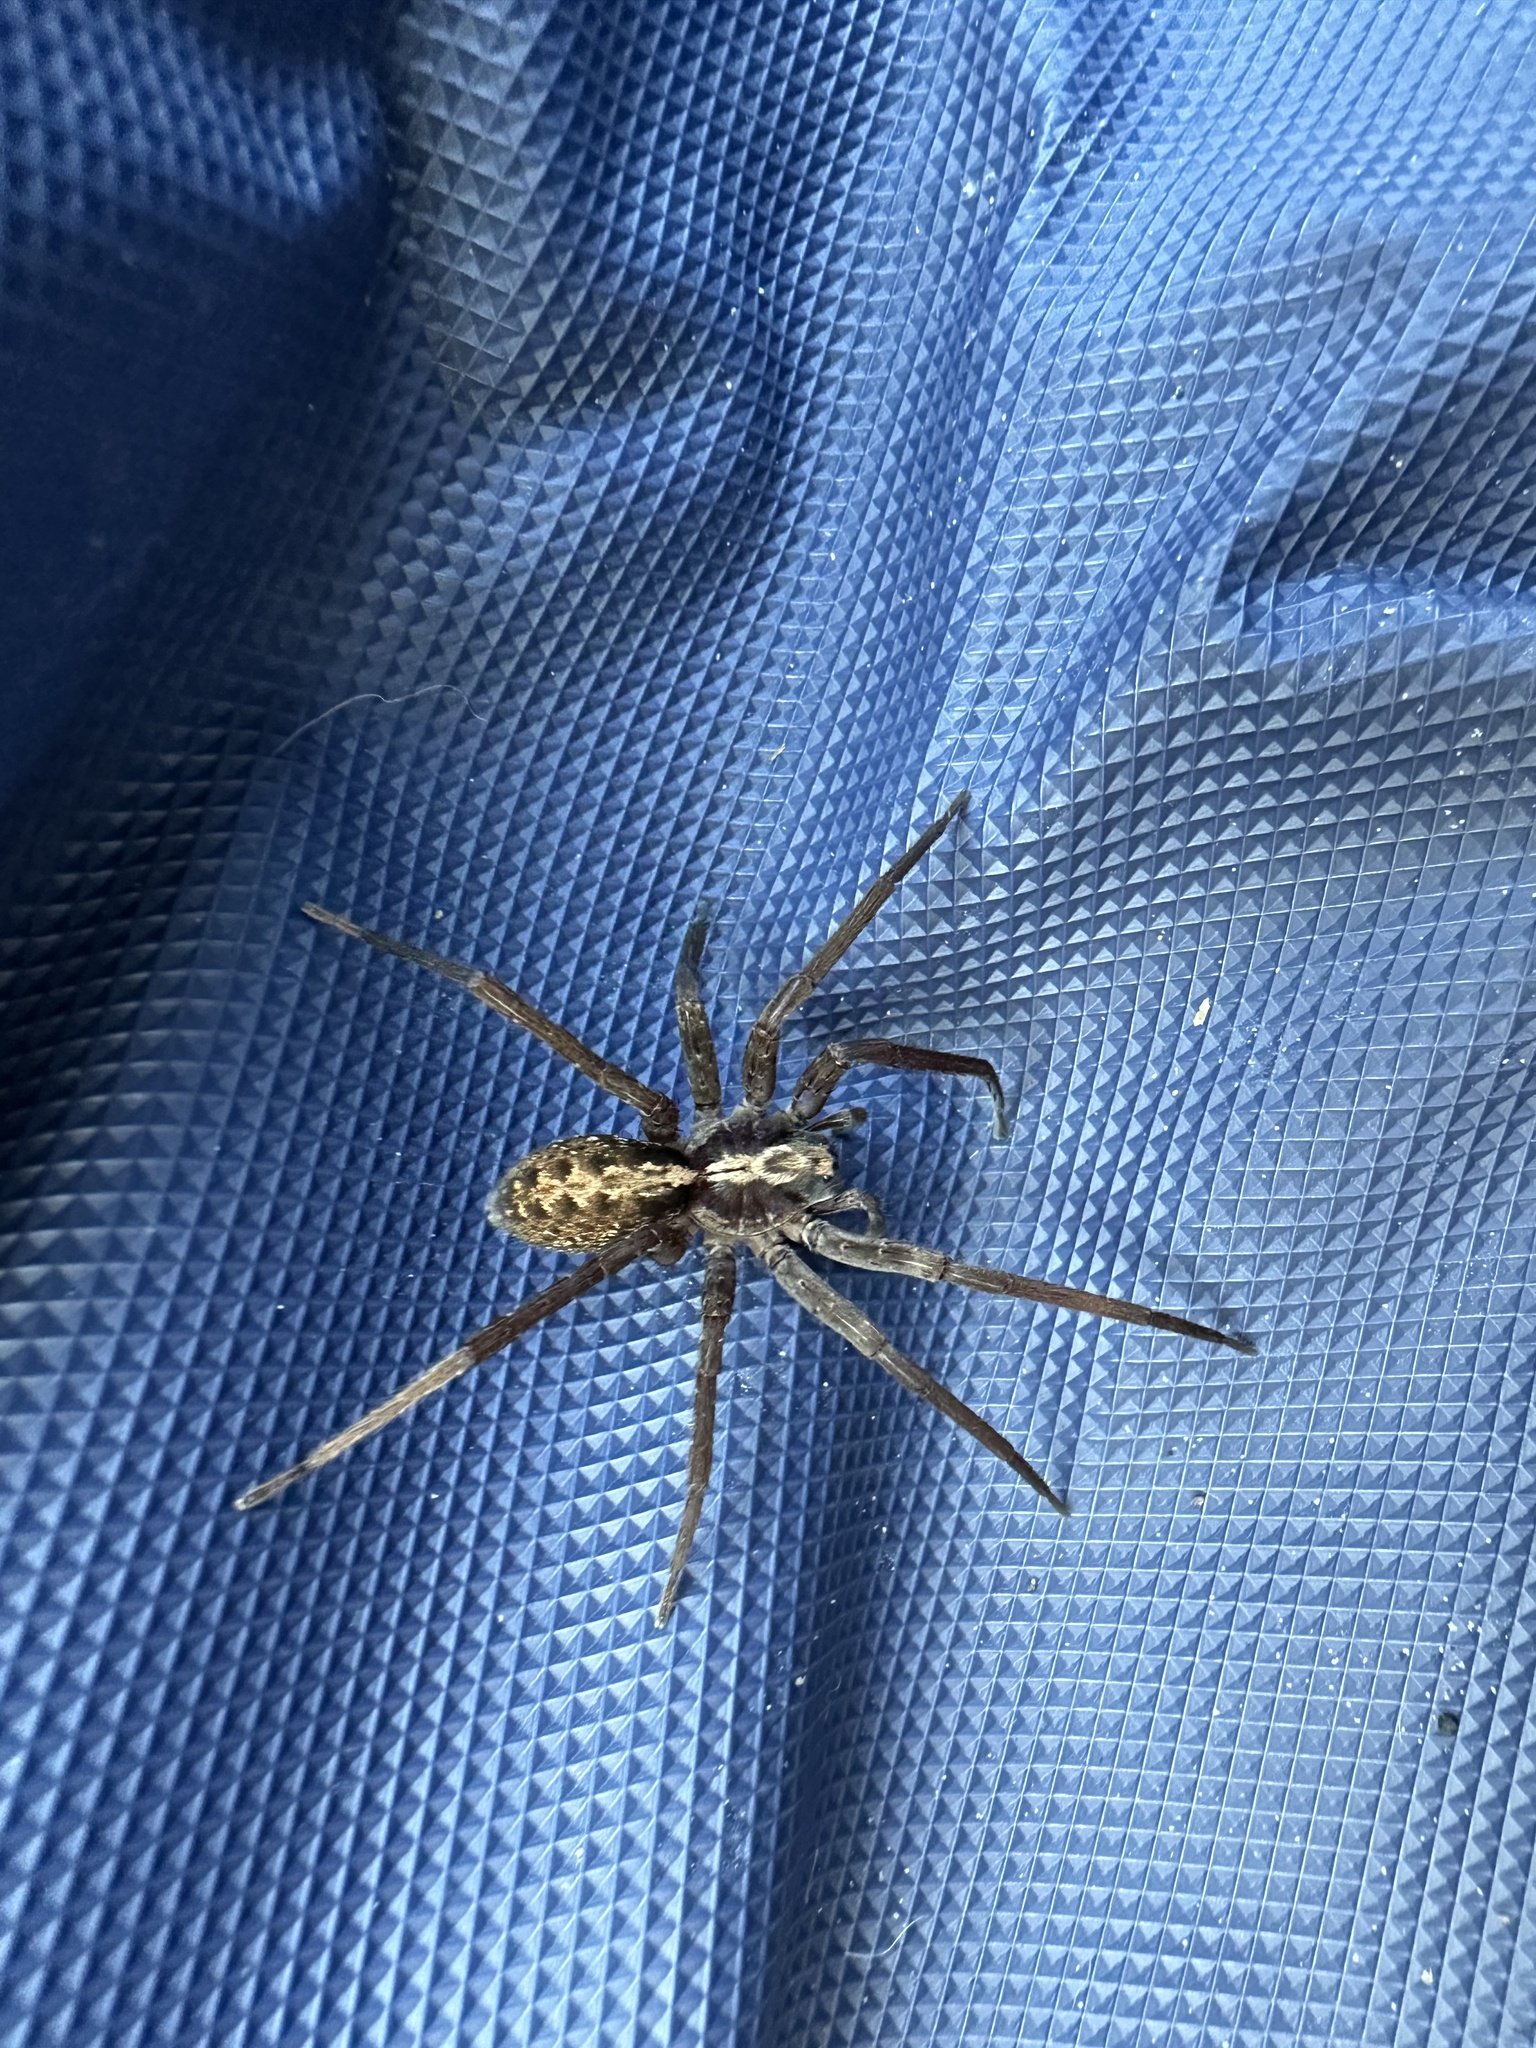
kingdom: Animalia
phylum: Arthropoda
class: Arachnida
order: Araneae
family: Ctenidae
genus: Ctenus
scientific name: Ctenus captiosus
